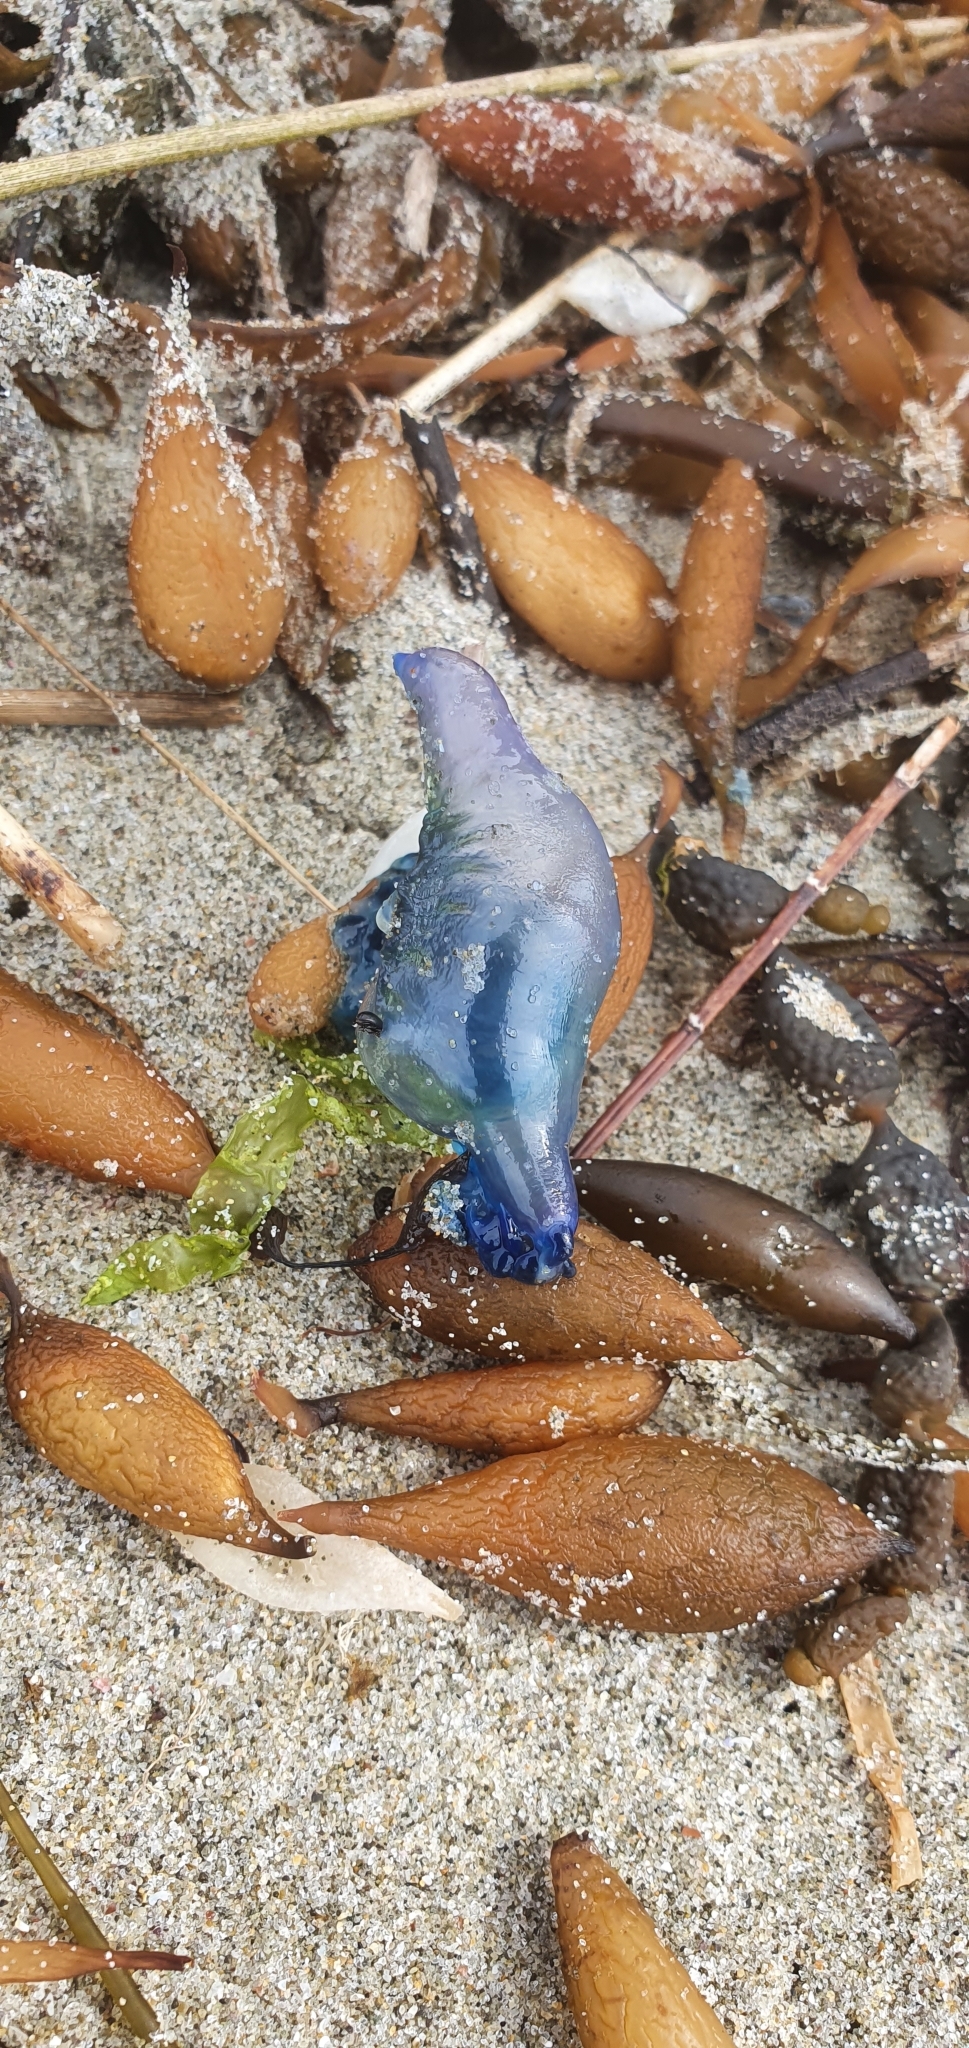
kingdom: Animalia
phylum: Cnidaria
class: Hydrozoa
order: Siphonophorae
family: Physaliidae
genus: Physalia
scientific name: Physalia physalis
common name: Portuguese man-of-war
